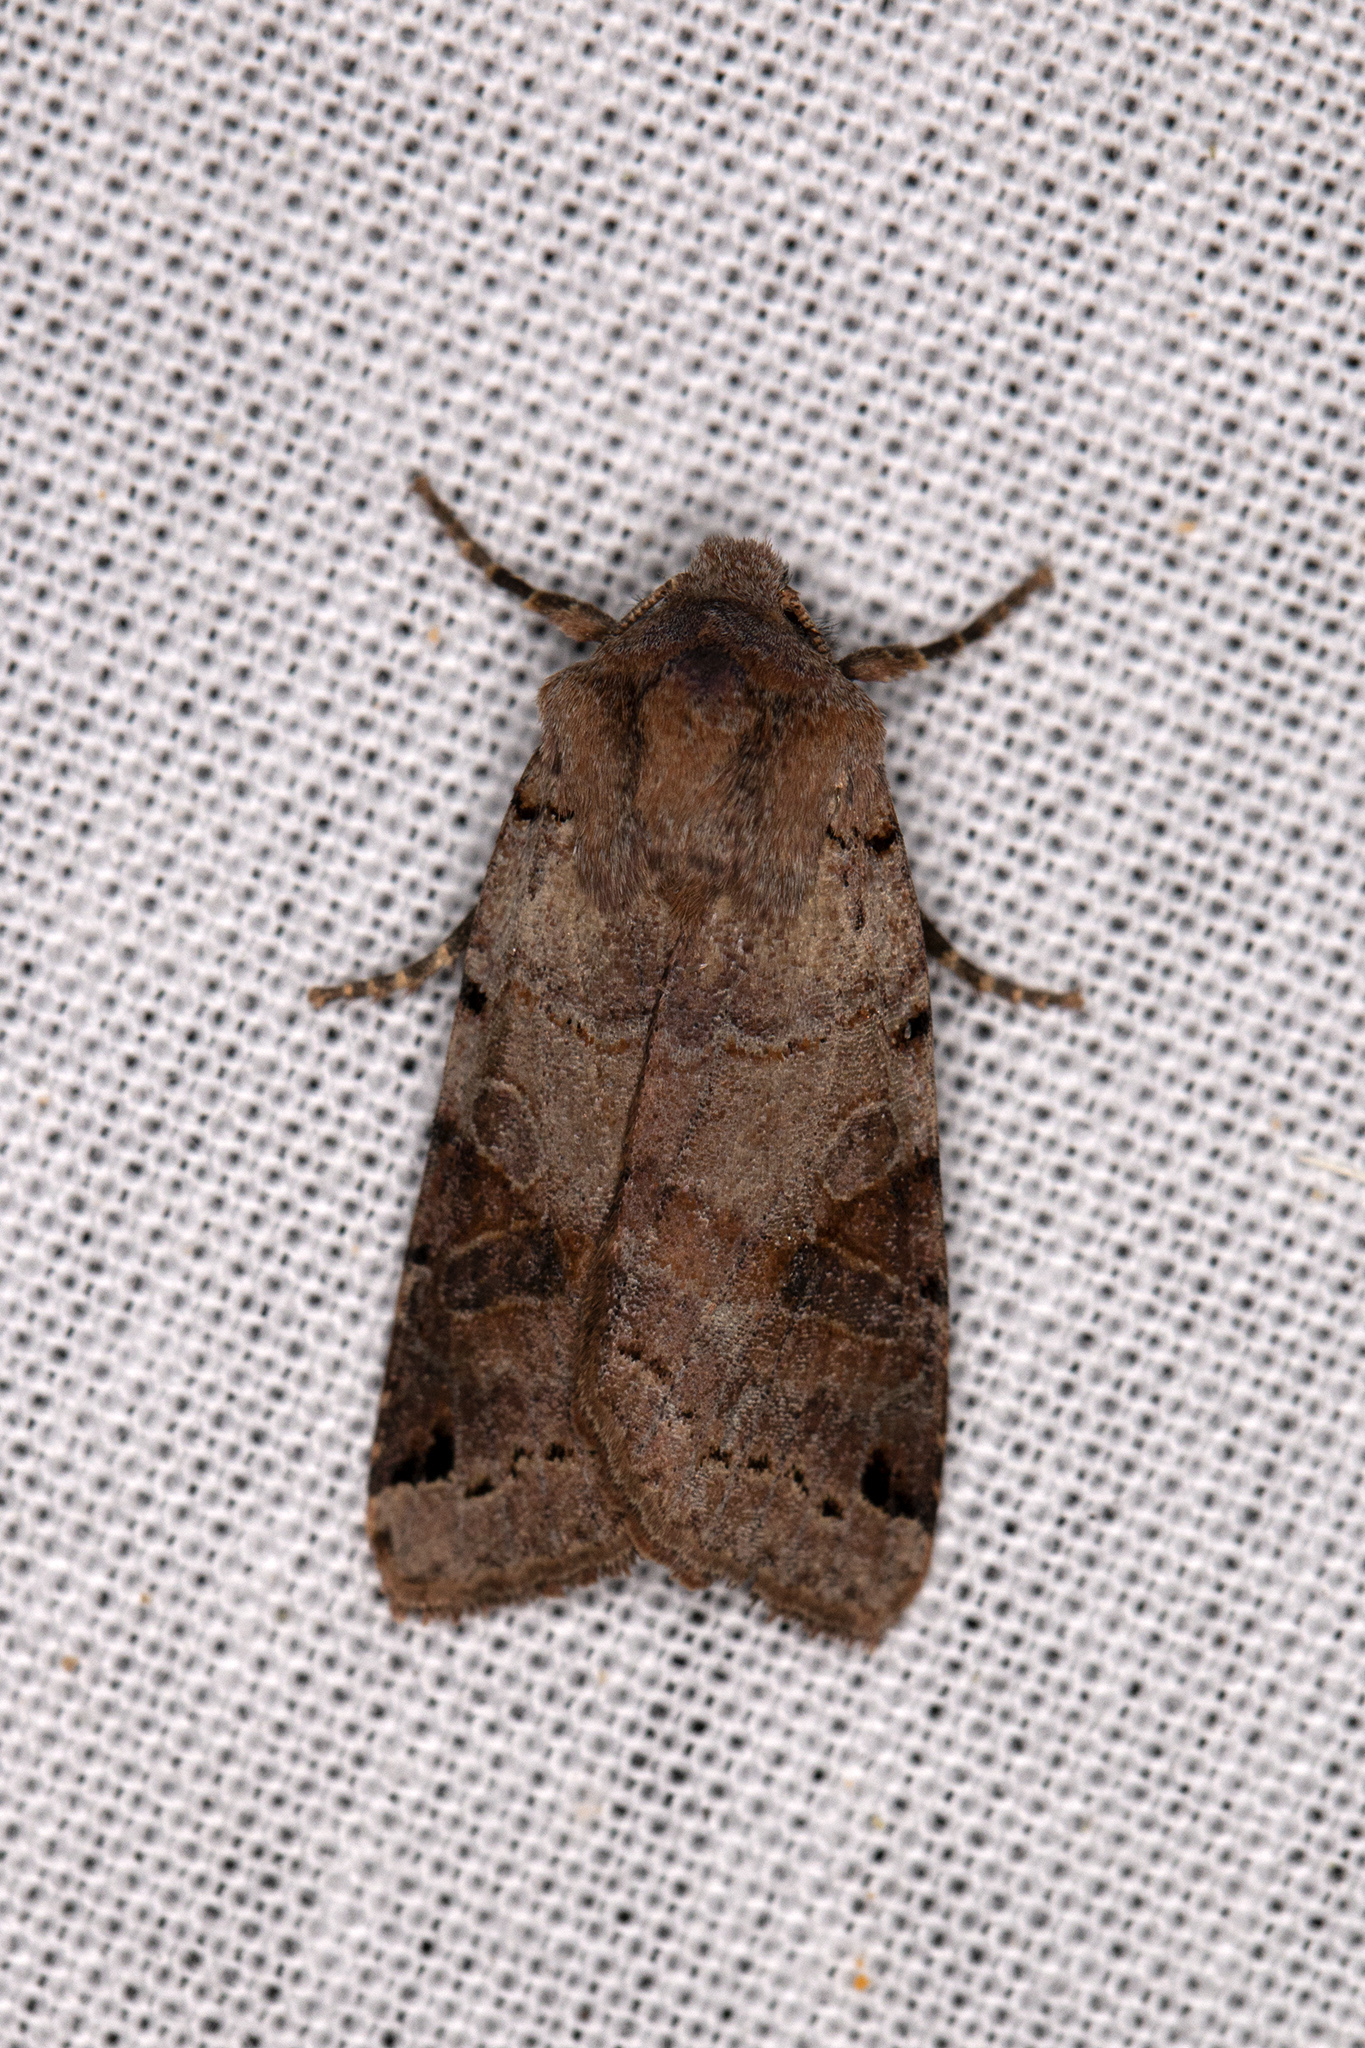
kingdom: Animalia
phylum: Arthropoda
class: Insecta
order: Lepidoptera
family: Noctuidae
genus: Agrochola
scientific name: Agrochola litura
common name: Brown-spot pinion
